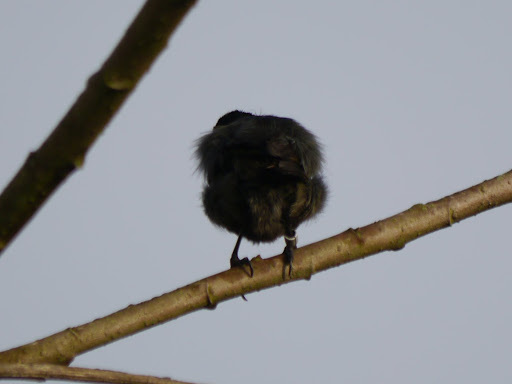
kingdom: Animalia
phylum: Chordata
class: Aves
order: Passeriformes
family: Nectariniidae
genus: Cinnyris
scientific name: Cinnyris chloropygius
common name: Olive-bellied sunbird
